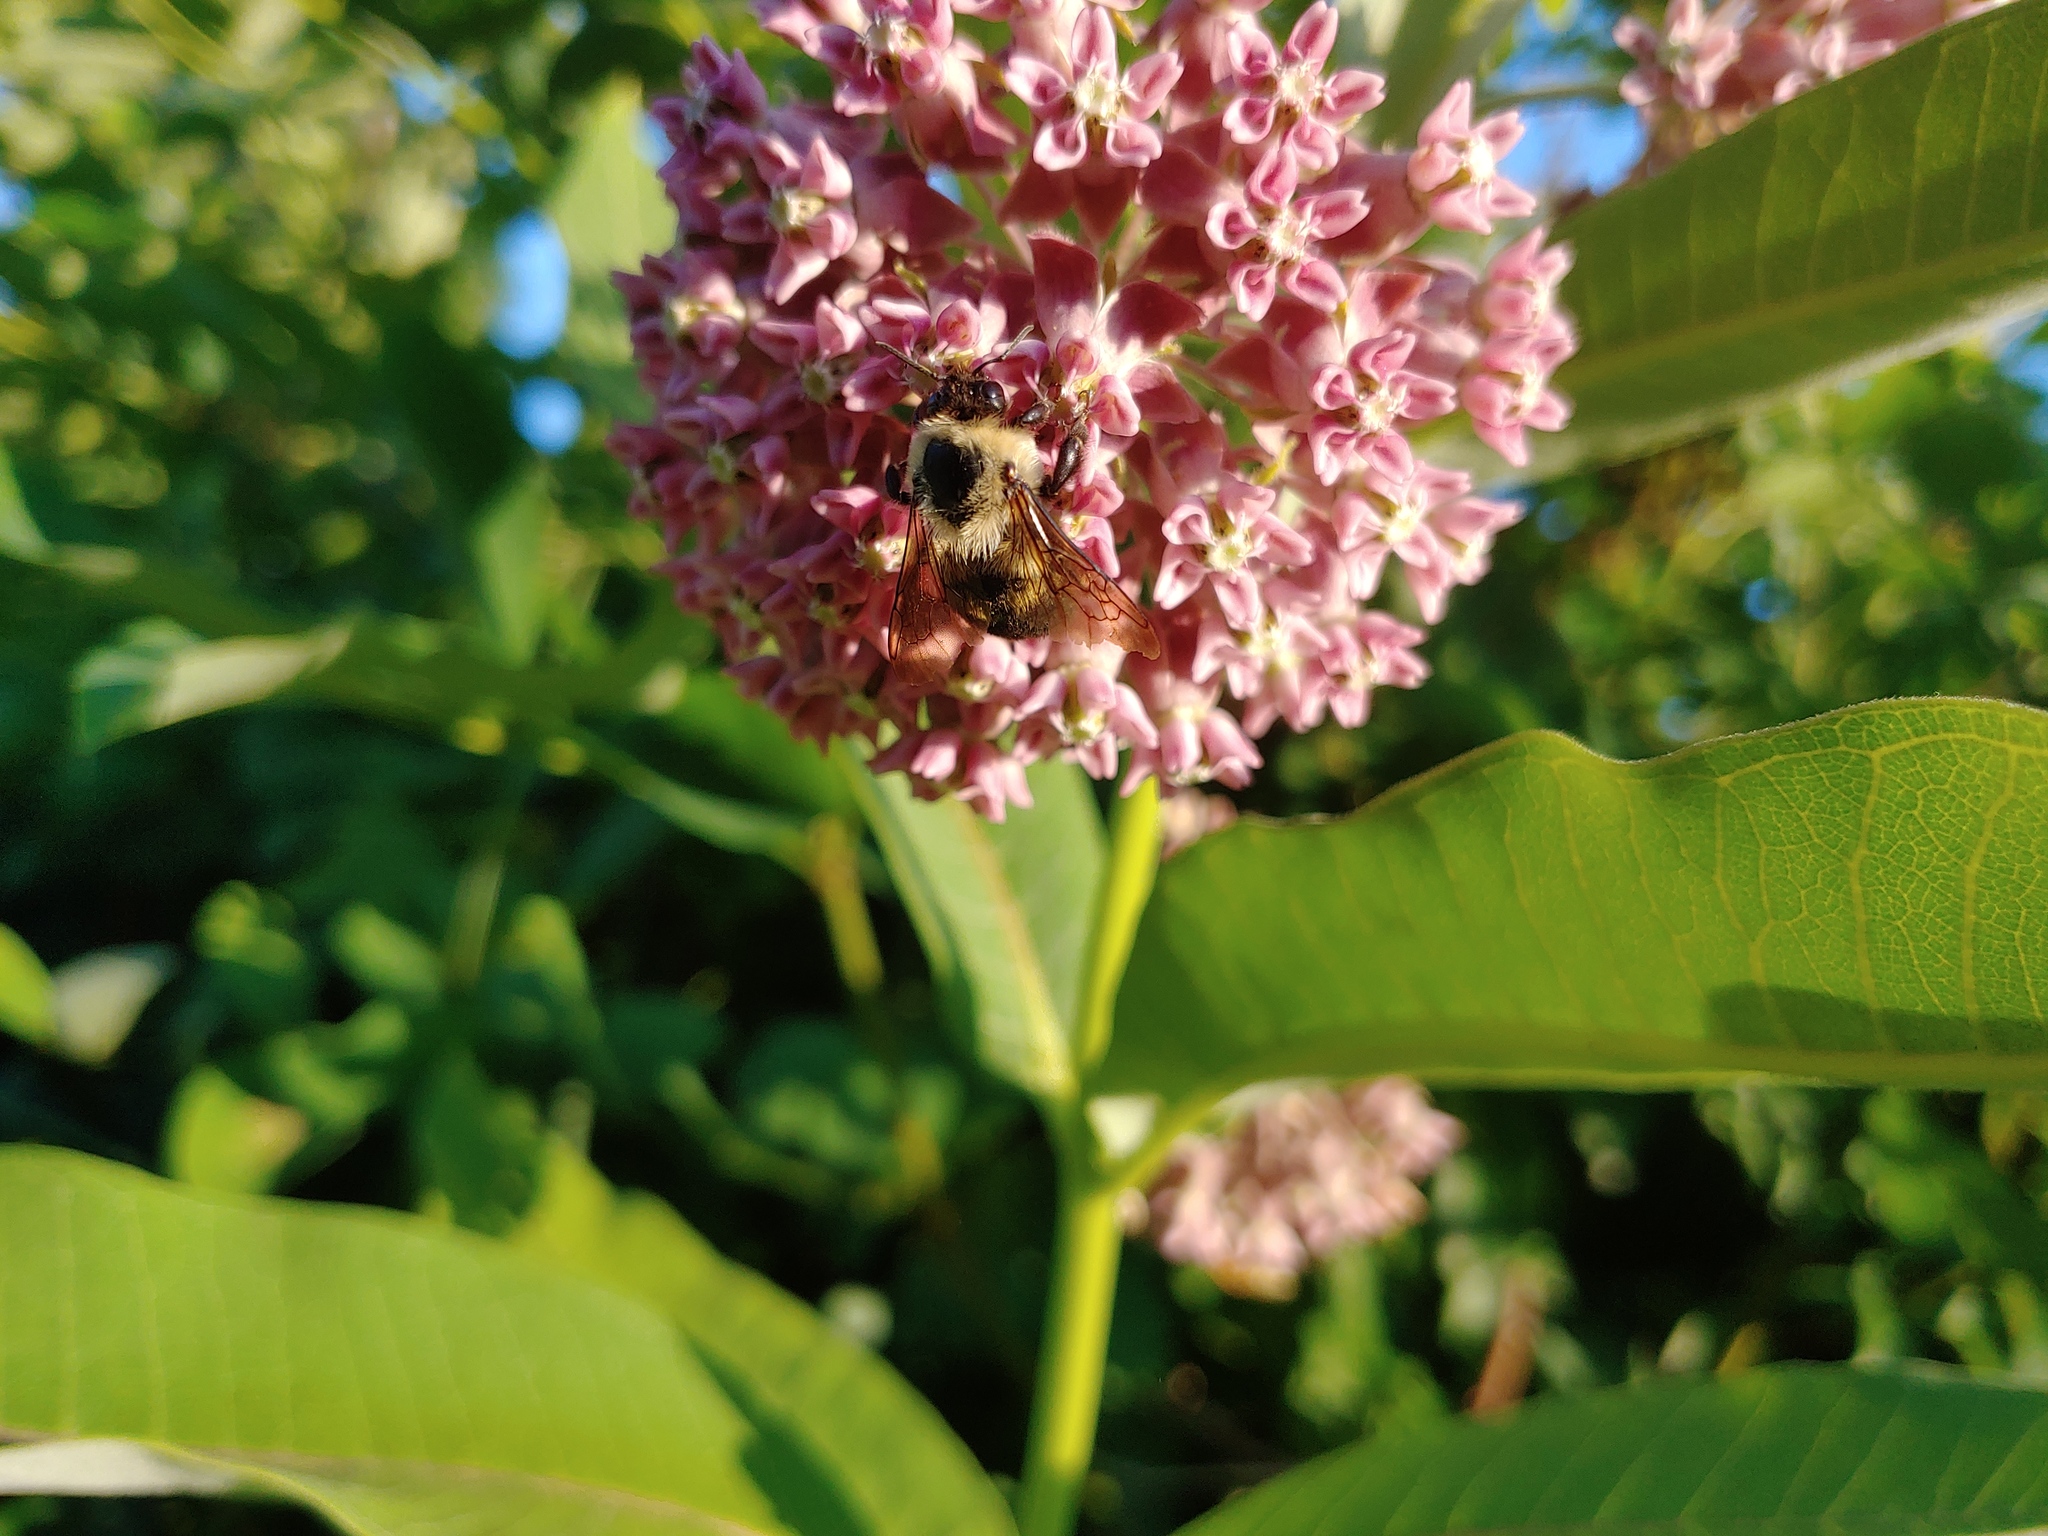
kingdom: Animalia
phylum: Arthropoda
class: Insecta
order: Hymenoptera
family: Apidae
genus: Bombus
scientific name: Bombus griseocollis
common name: Brown-belted bumble bee
